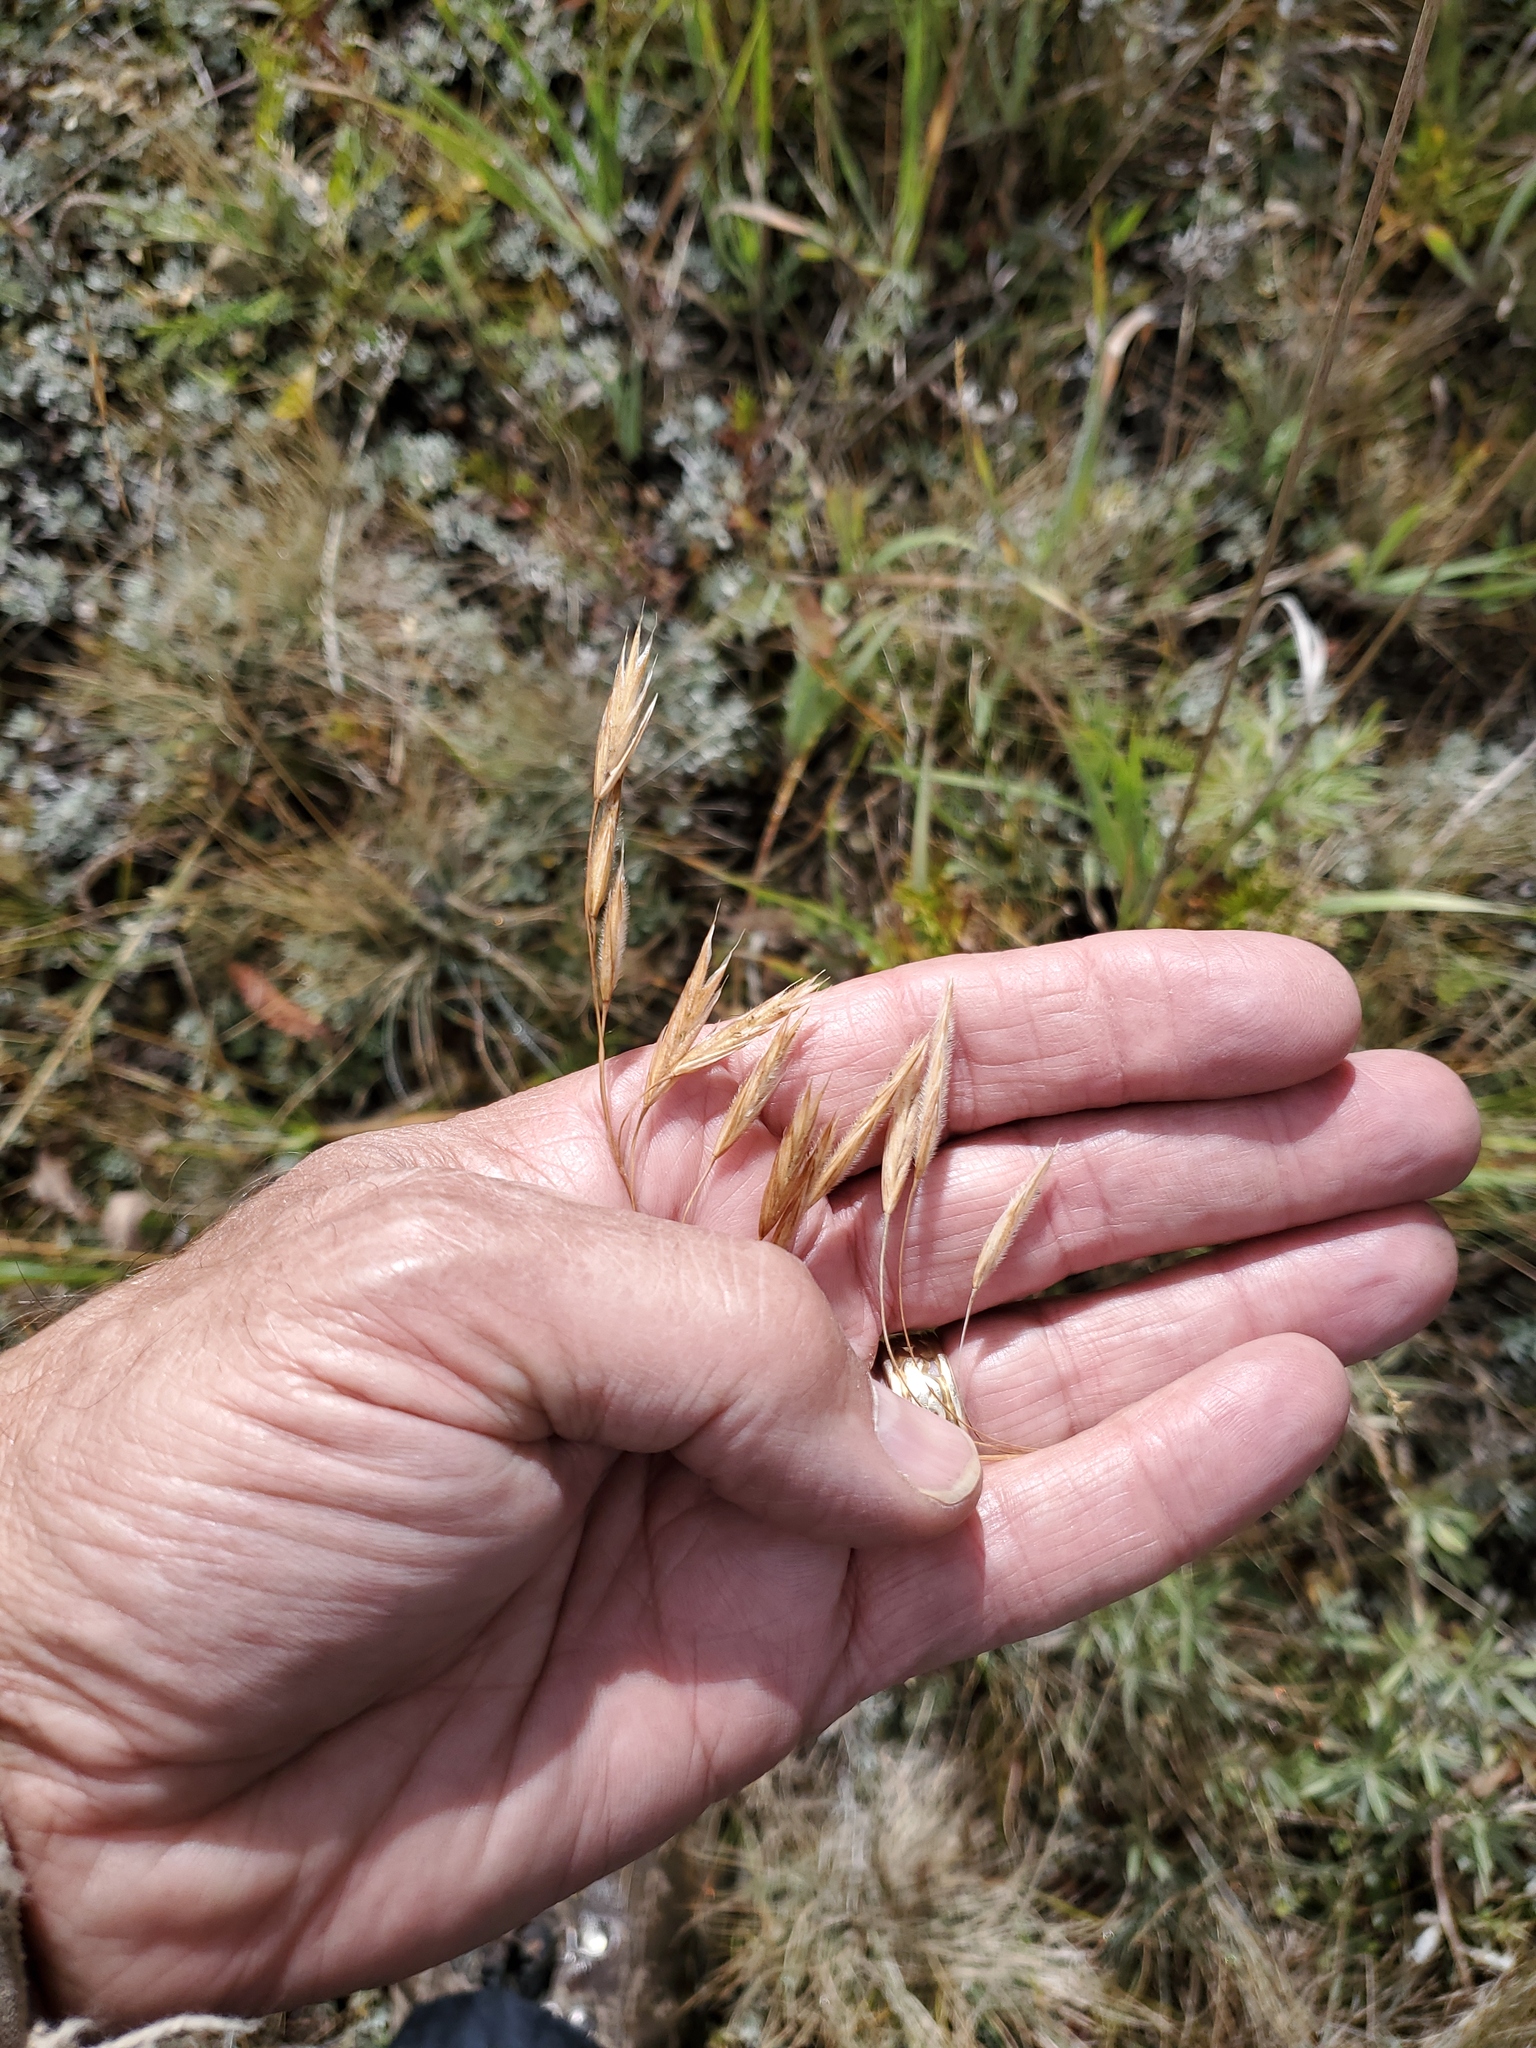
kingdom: Plantae
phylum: Tracheophyta
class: Liliopsida
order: Poales
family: Poaceae
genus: Bromus
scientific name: Bromus inermis
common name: Smooth brome
